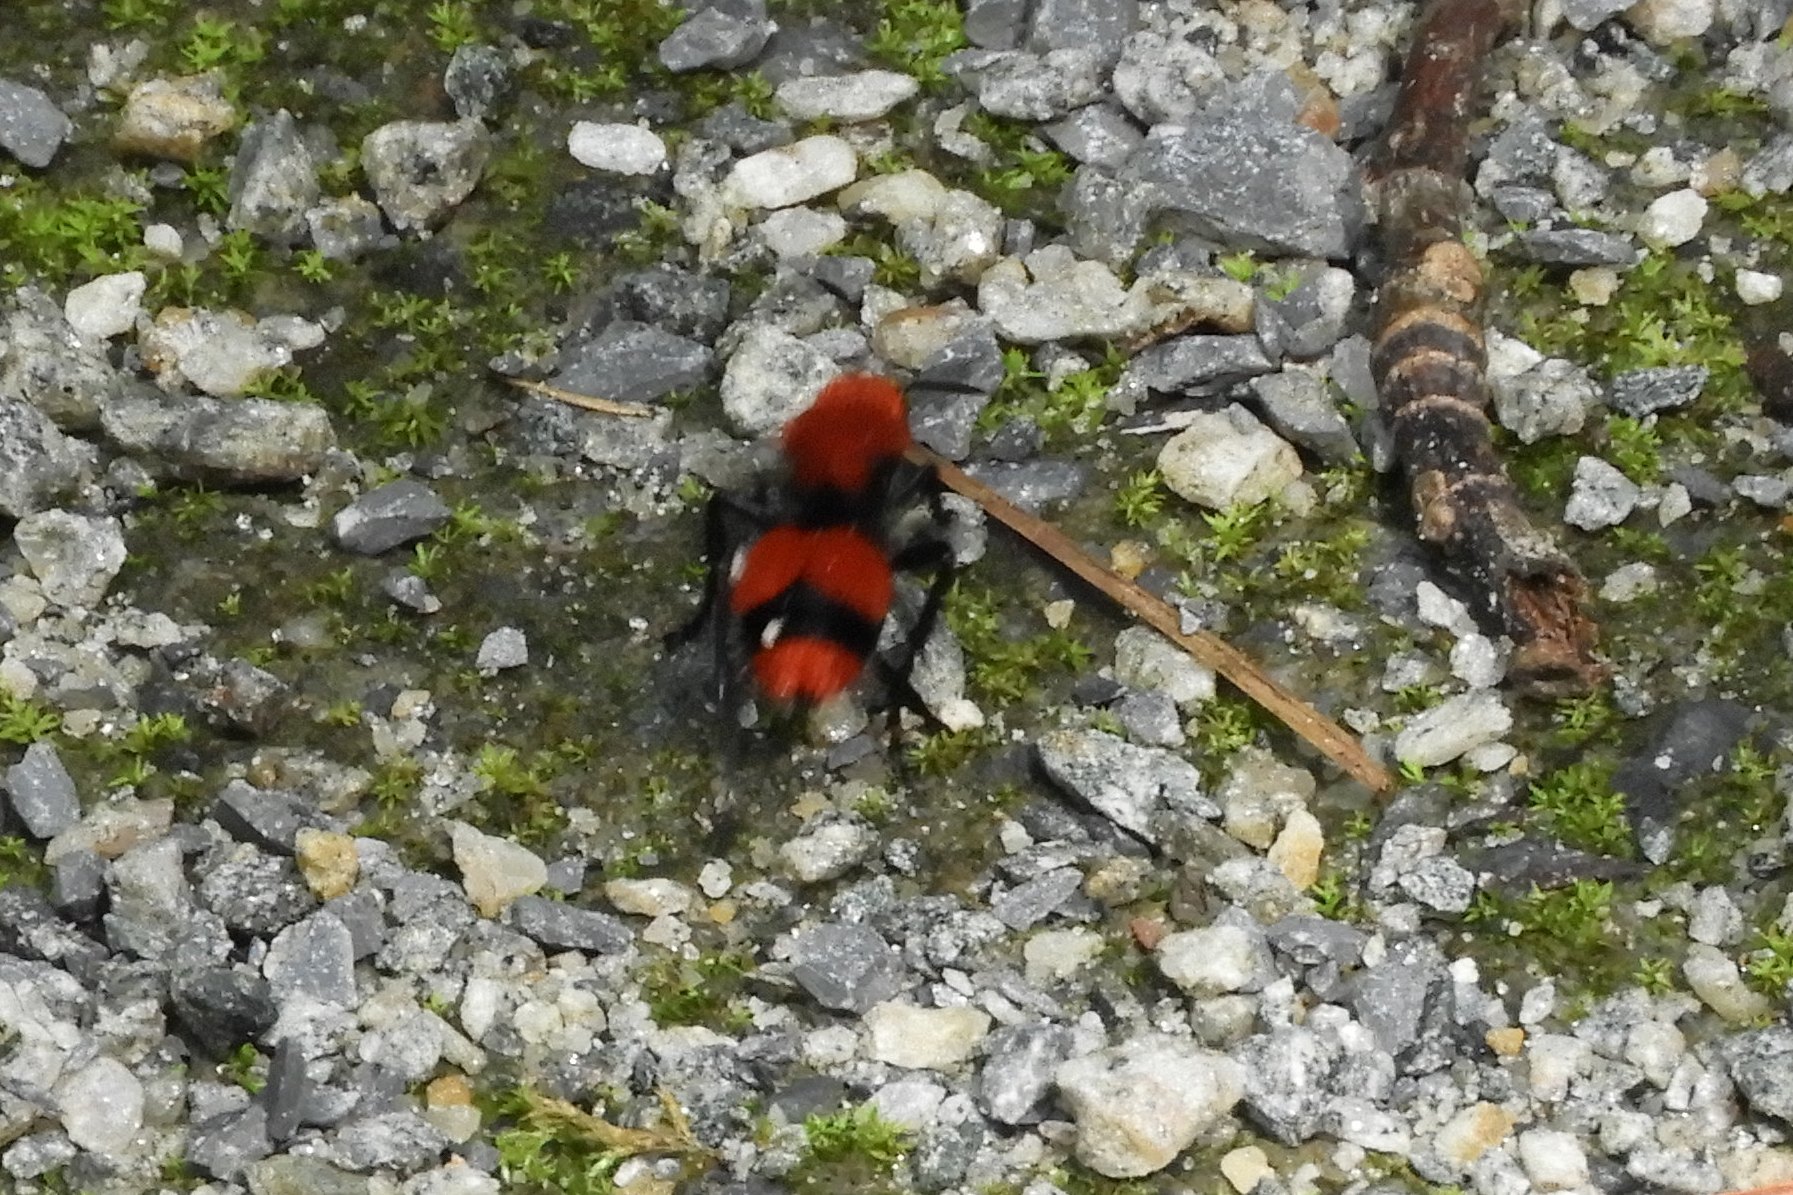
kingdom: Animalia
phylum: Arthropoda
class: Insecta
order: Hymenoptera
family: Mutillidae
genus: Dasymutilla
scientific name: Dasymutilla occidentalis
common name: Common eastern velvet ant
